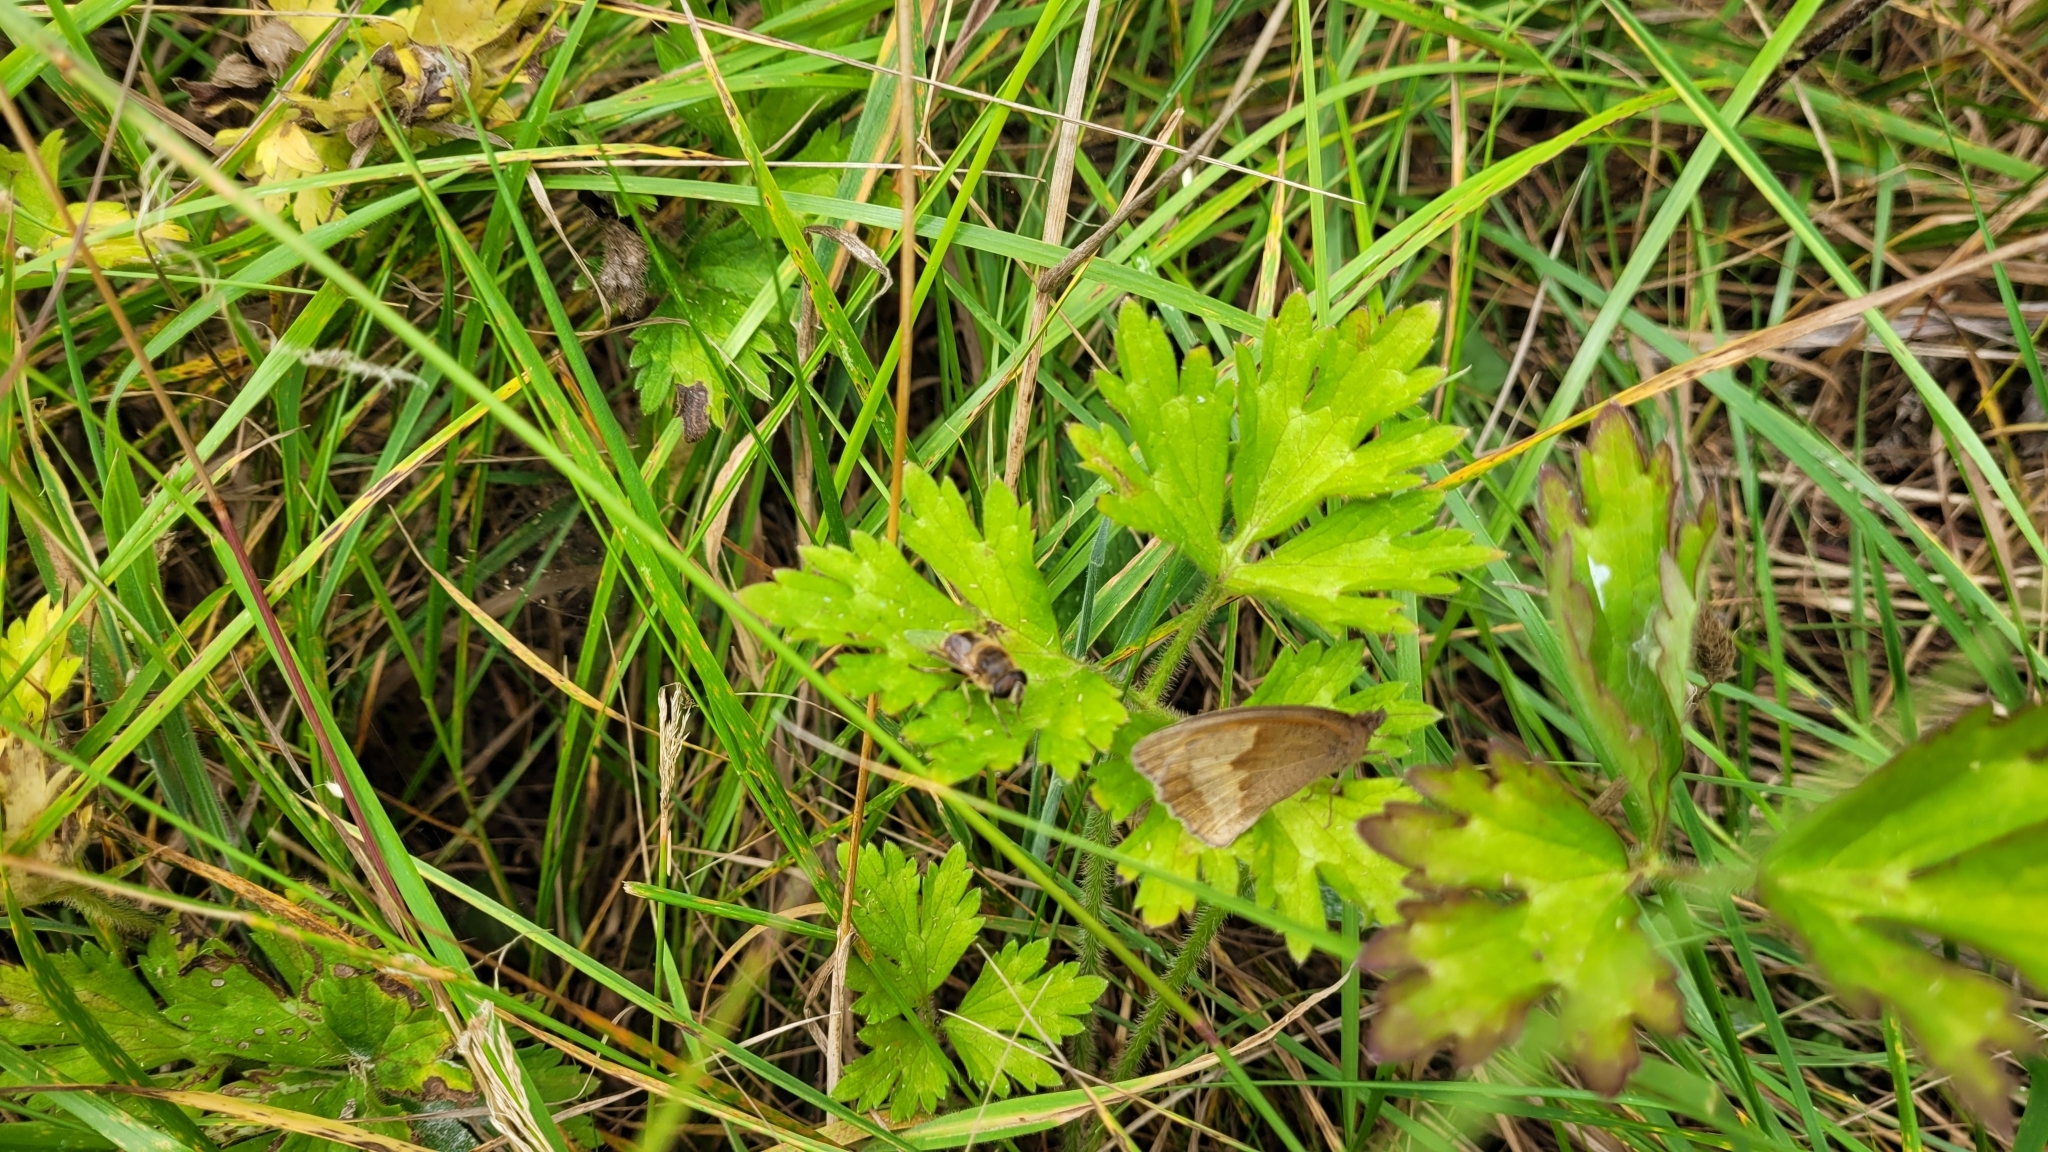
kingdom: Animalia
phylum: Arthropoda
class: Insecta
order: Lepidoptera
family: Nymphalidae
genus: Maniola
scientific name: Maniola jurtina
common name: Meadow brown
